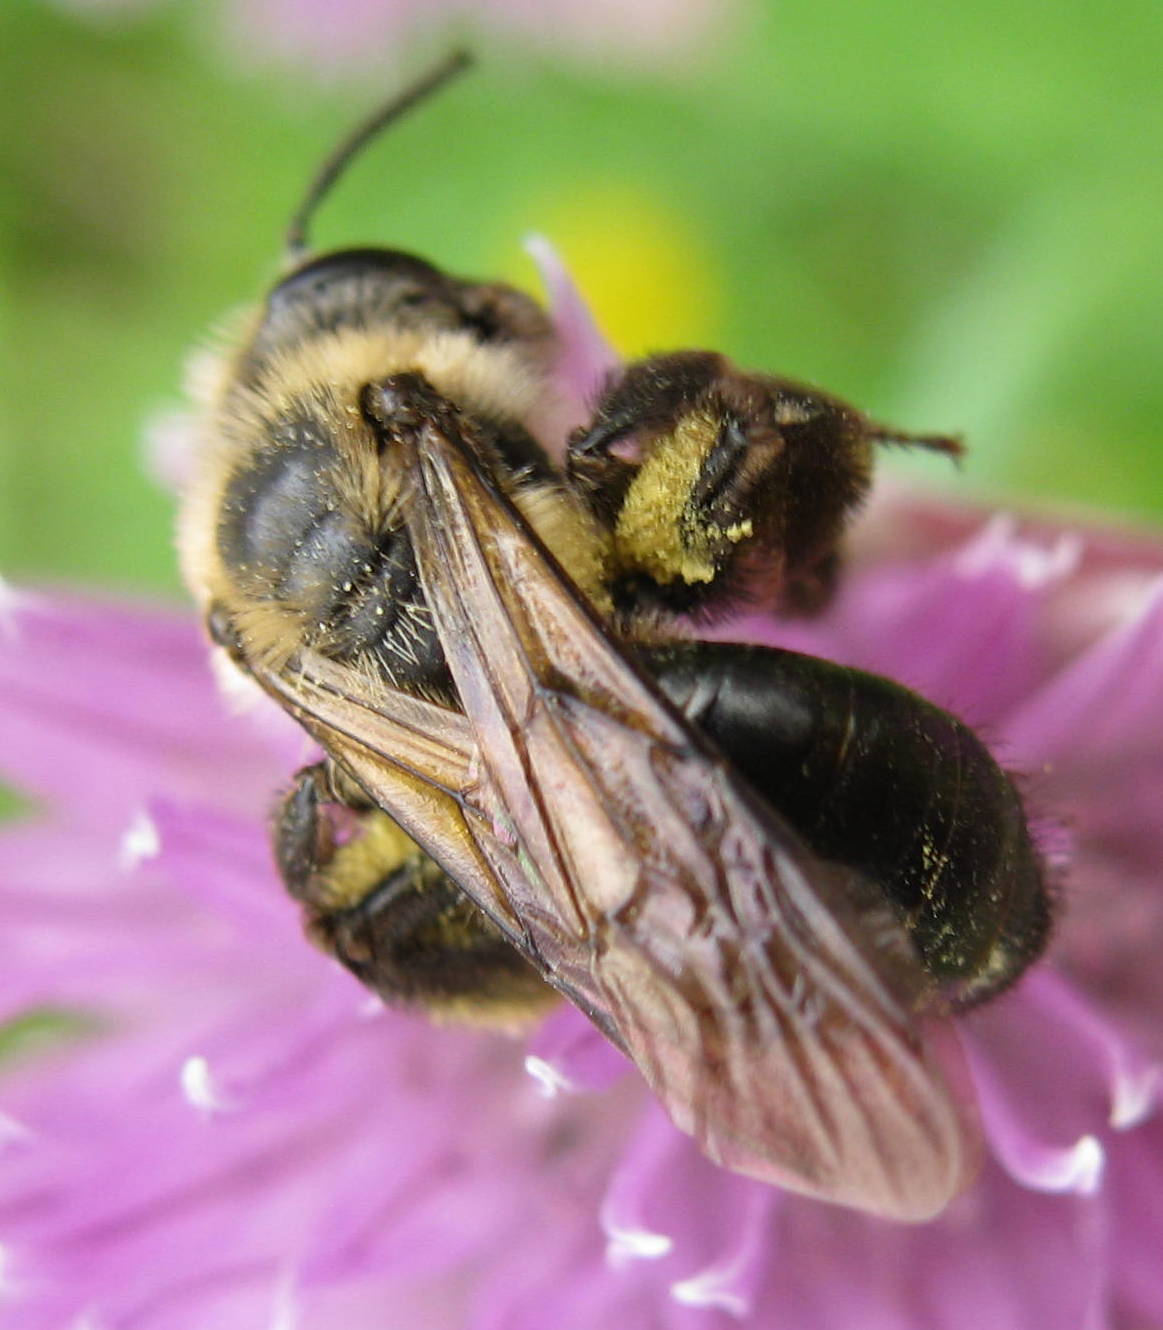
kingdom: Animalia
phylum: Arthropoda
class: Insecta
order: Hymenoptera
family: Andrenidae
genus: Andrena
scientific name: Andrena vicina
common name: Neighborly mining bee
